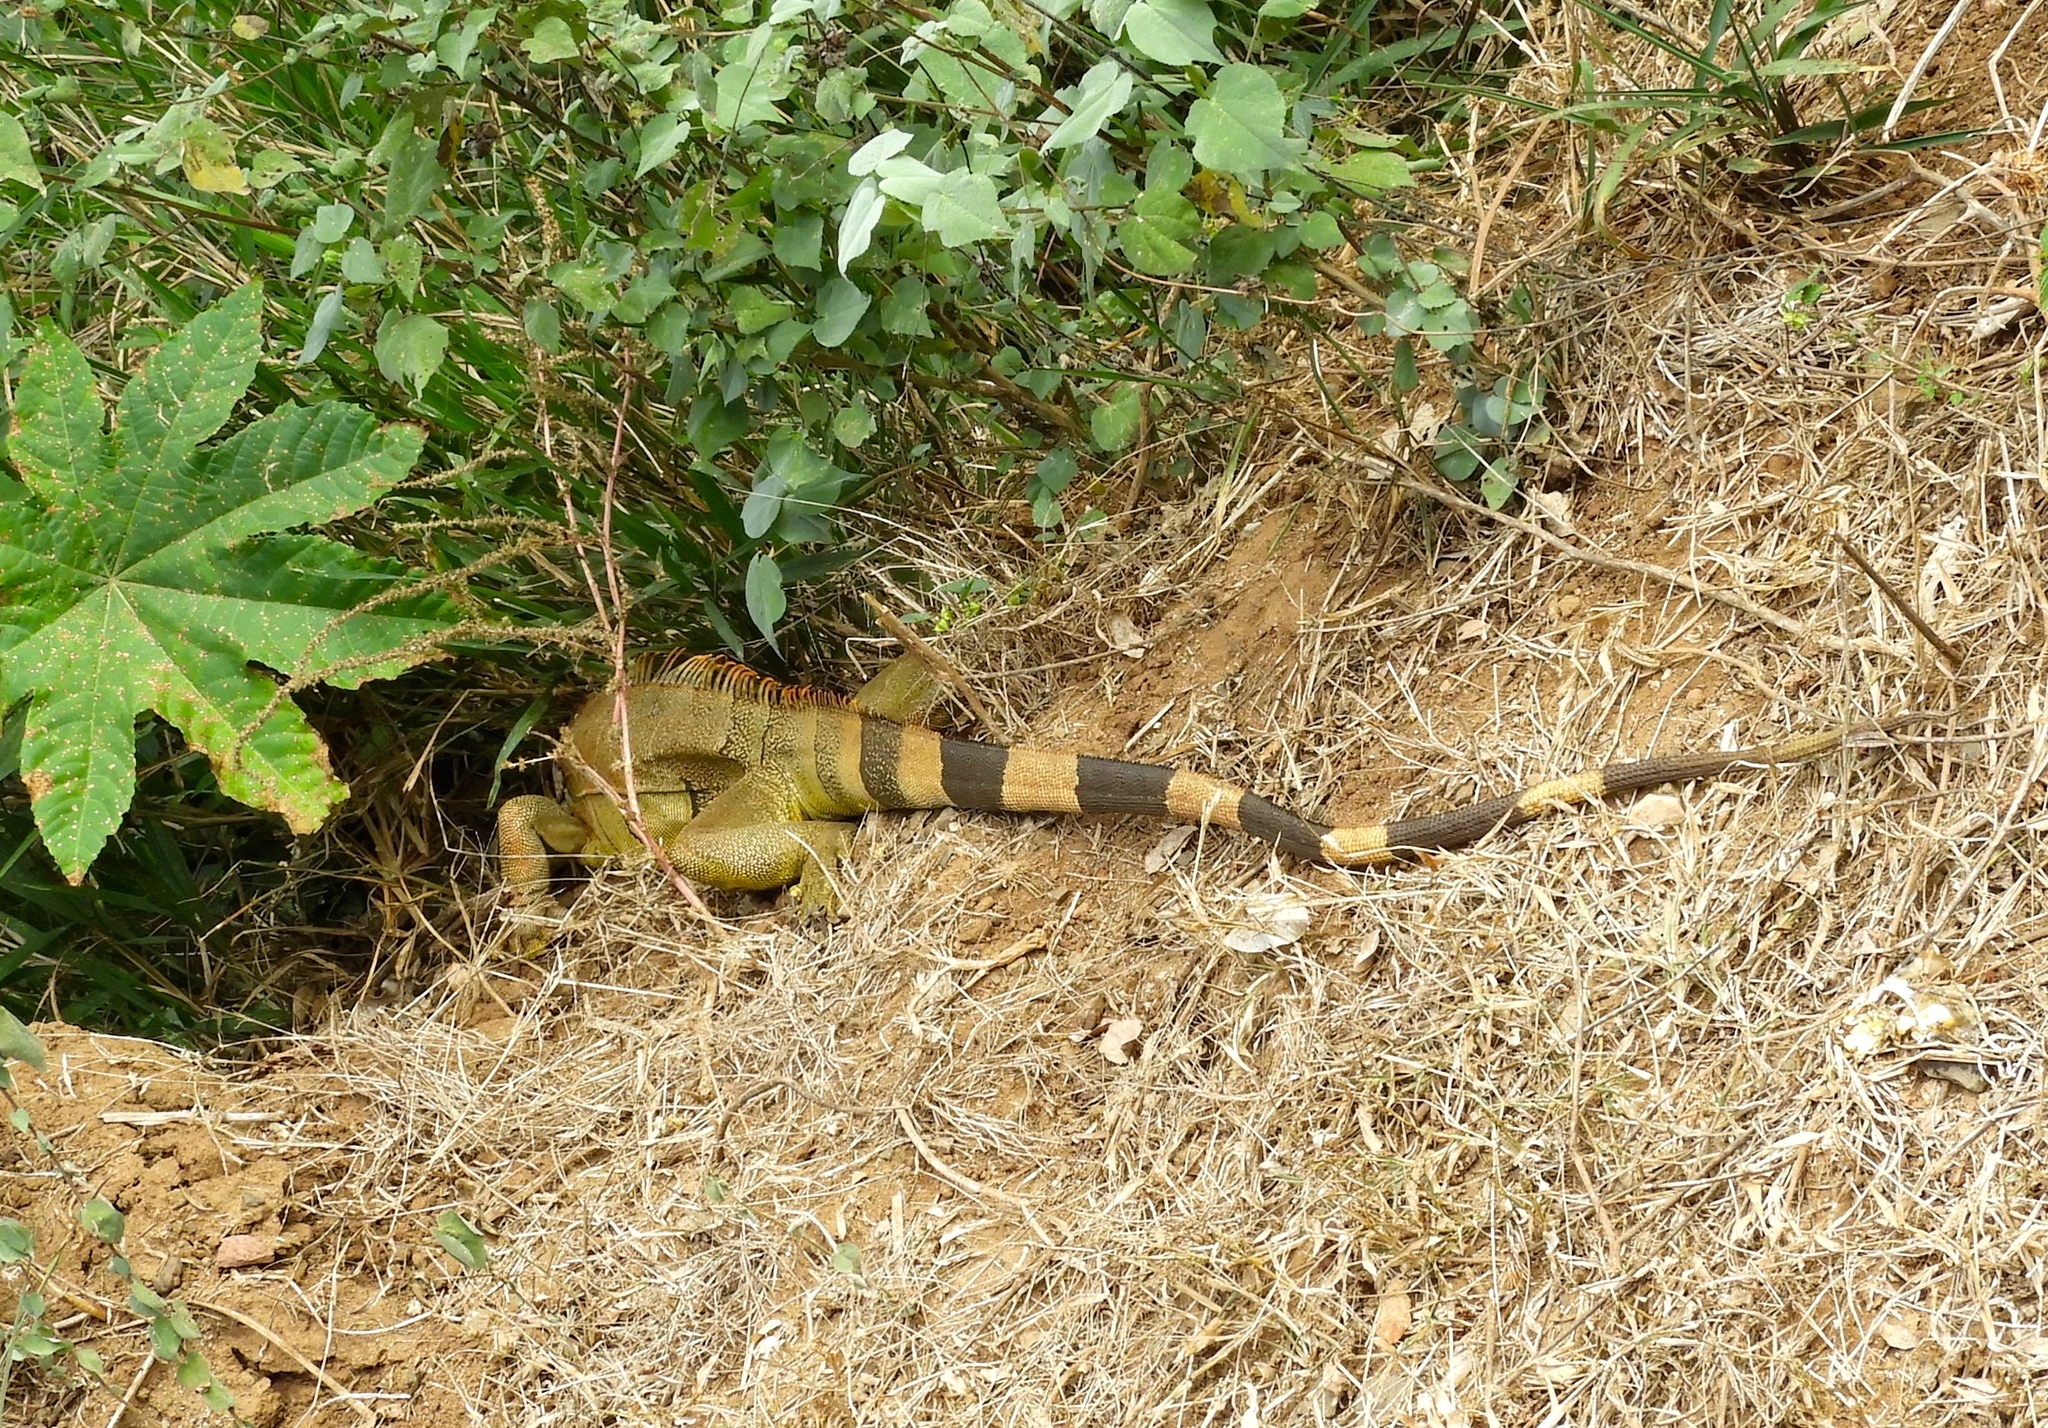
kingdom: Animalia
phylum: Chordata
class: Squamata
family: Iguanidae
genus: Iguana
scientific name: Iguana iguana
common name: Green iguana
